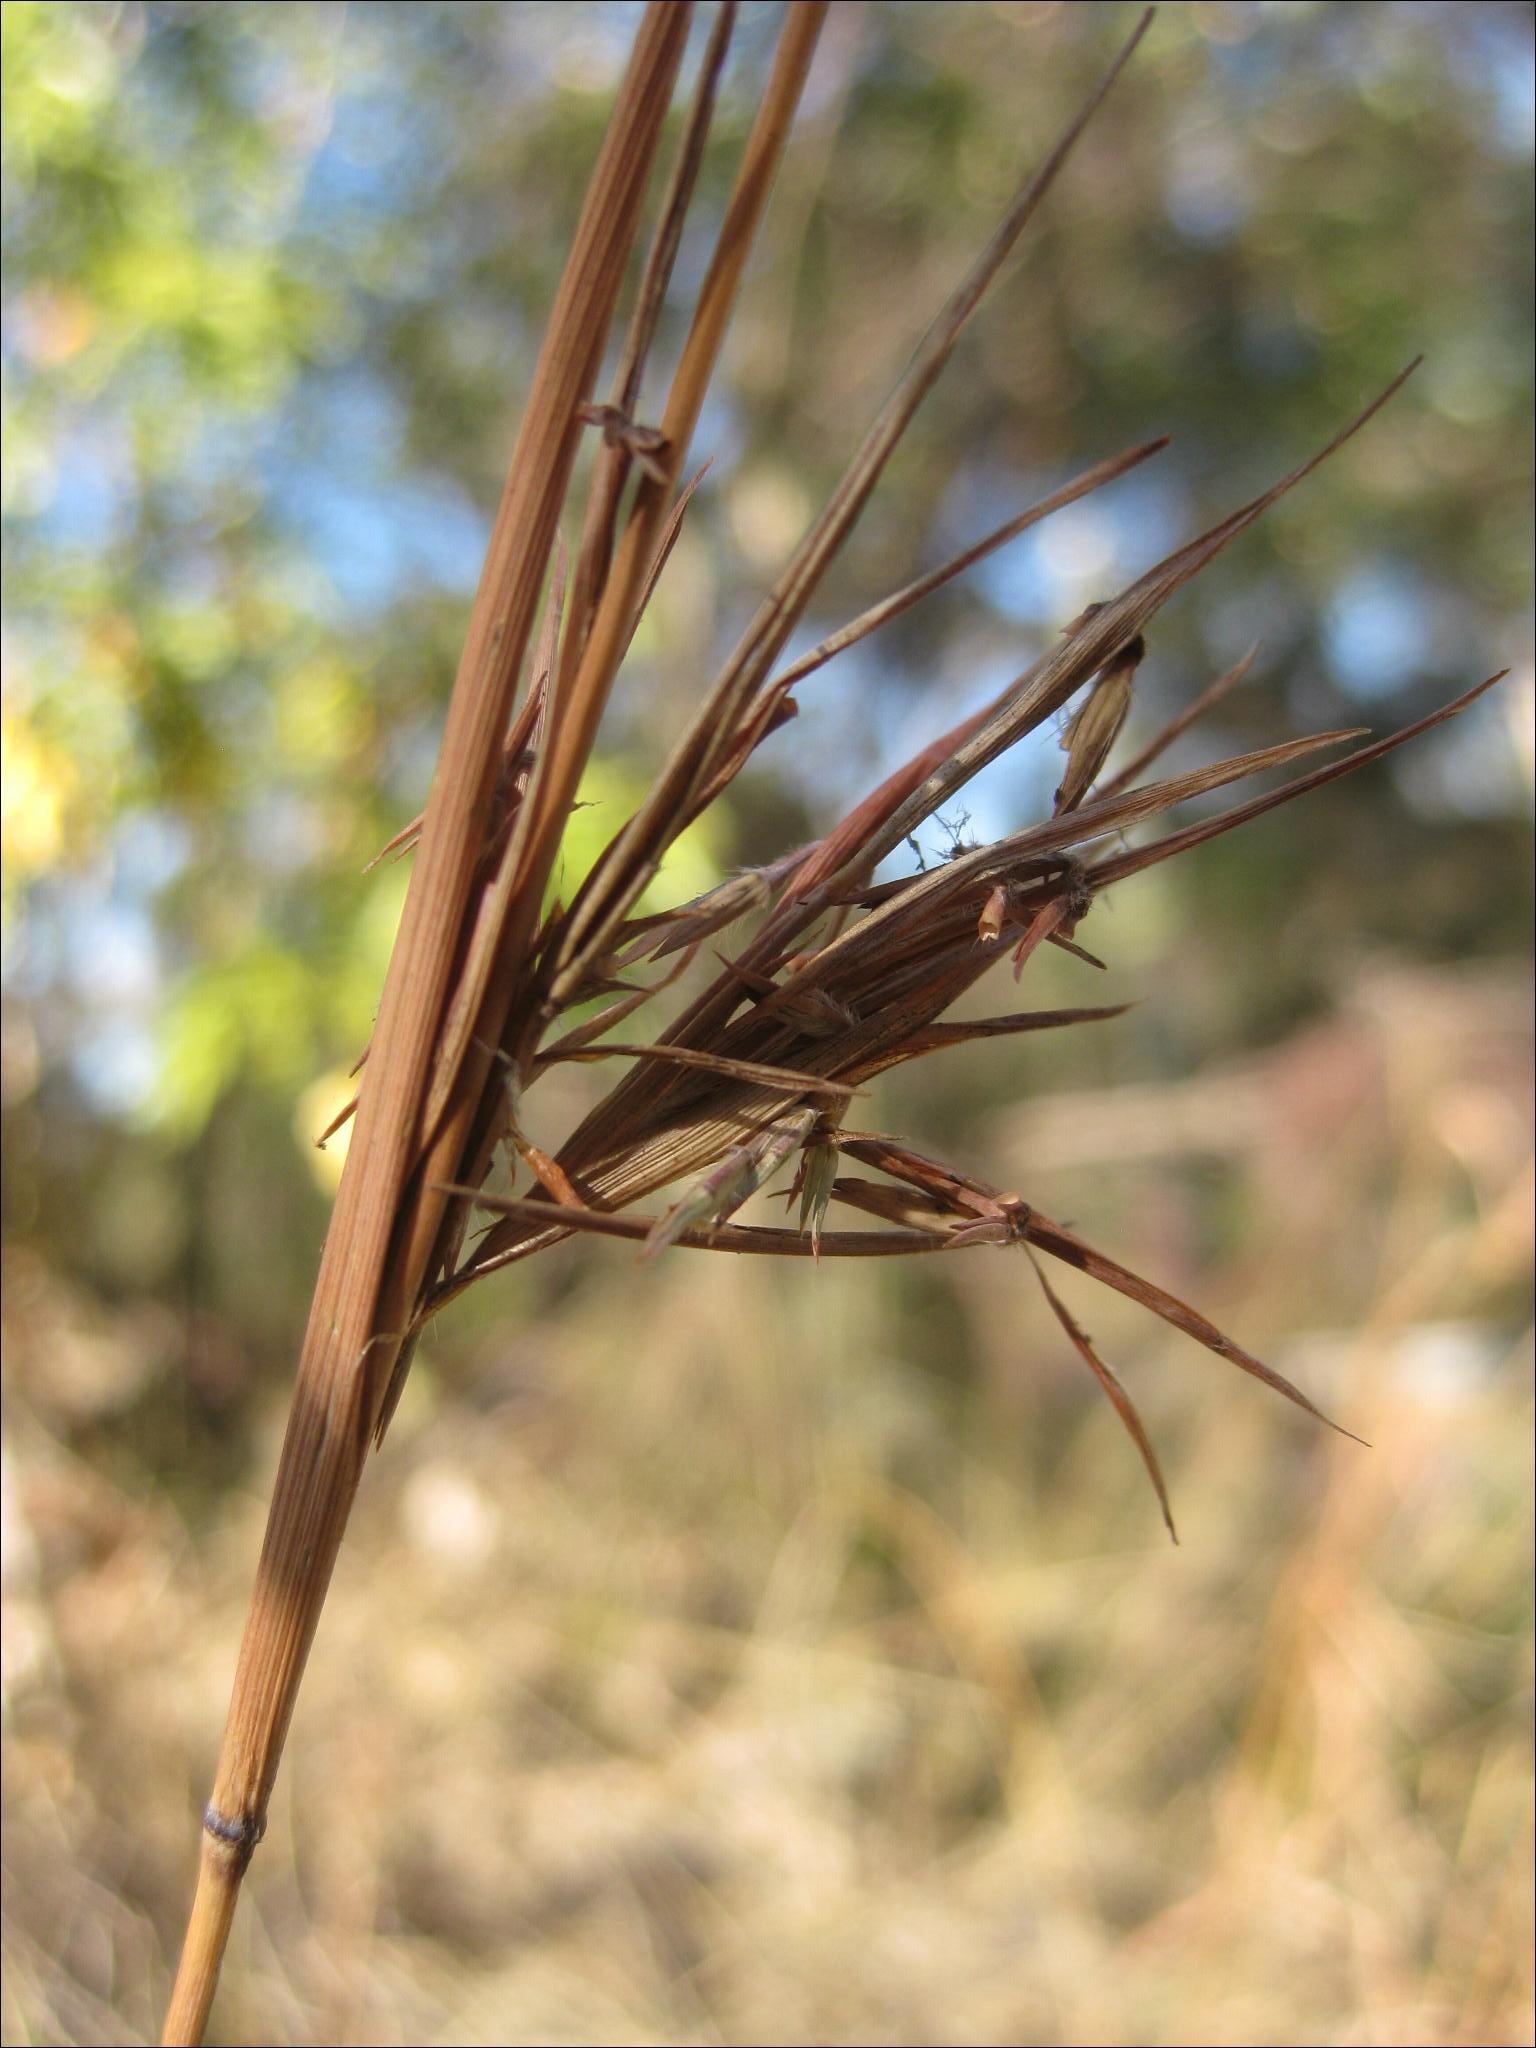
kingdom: Plantae
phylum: Tracheophyta
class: Liliopsida
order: Poales
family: Poaceae
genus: Cymbopogon
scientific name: Cymbopogon refractus
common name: Barbwire grass
